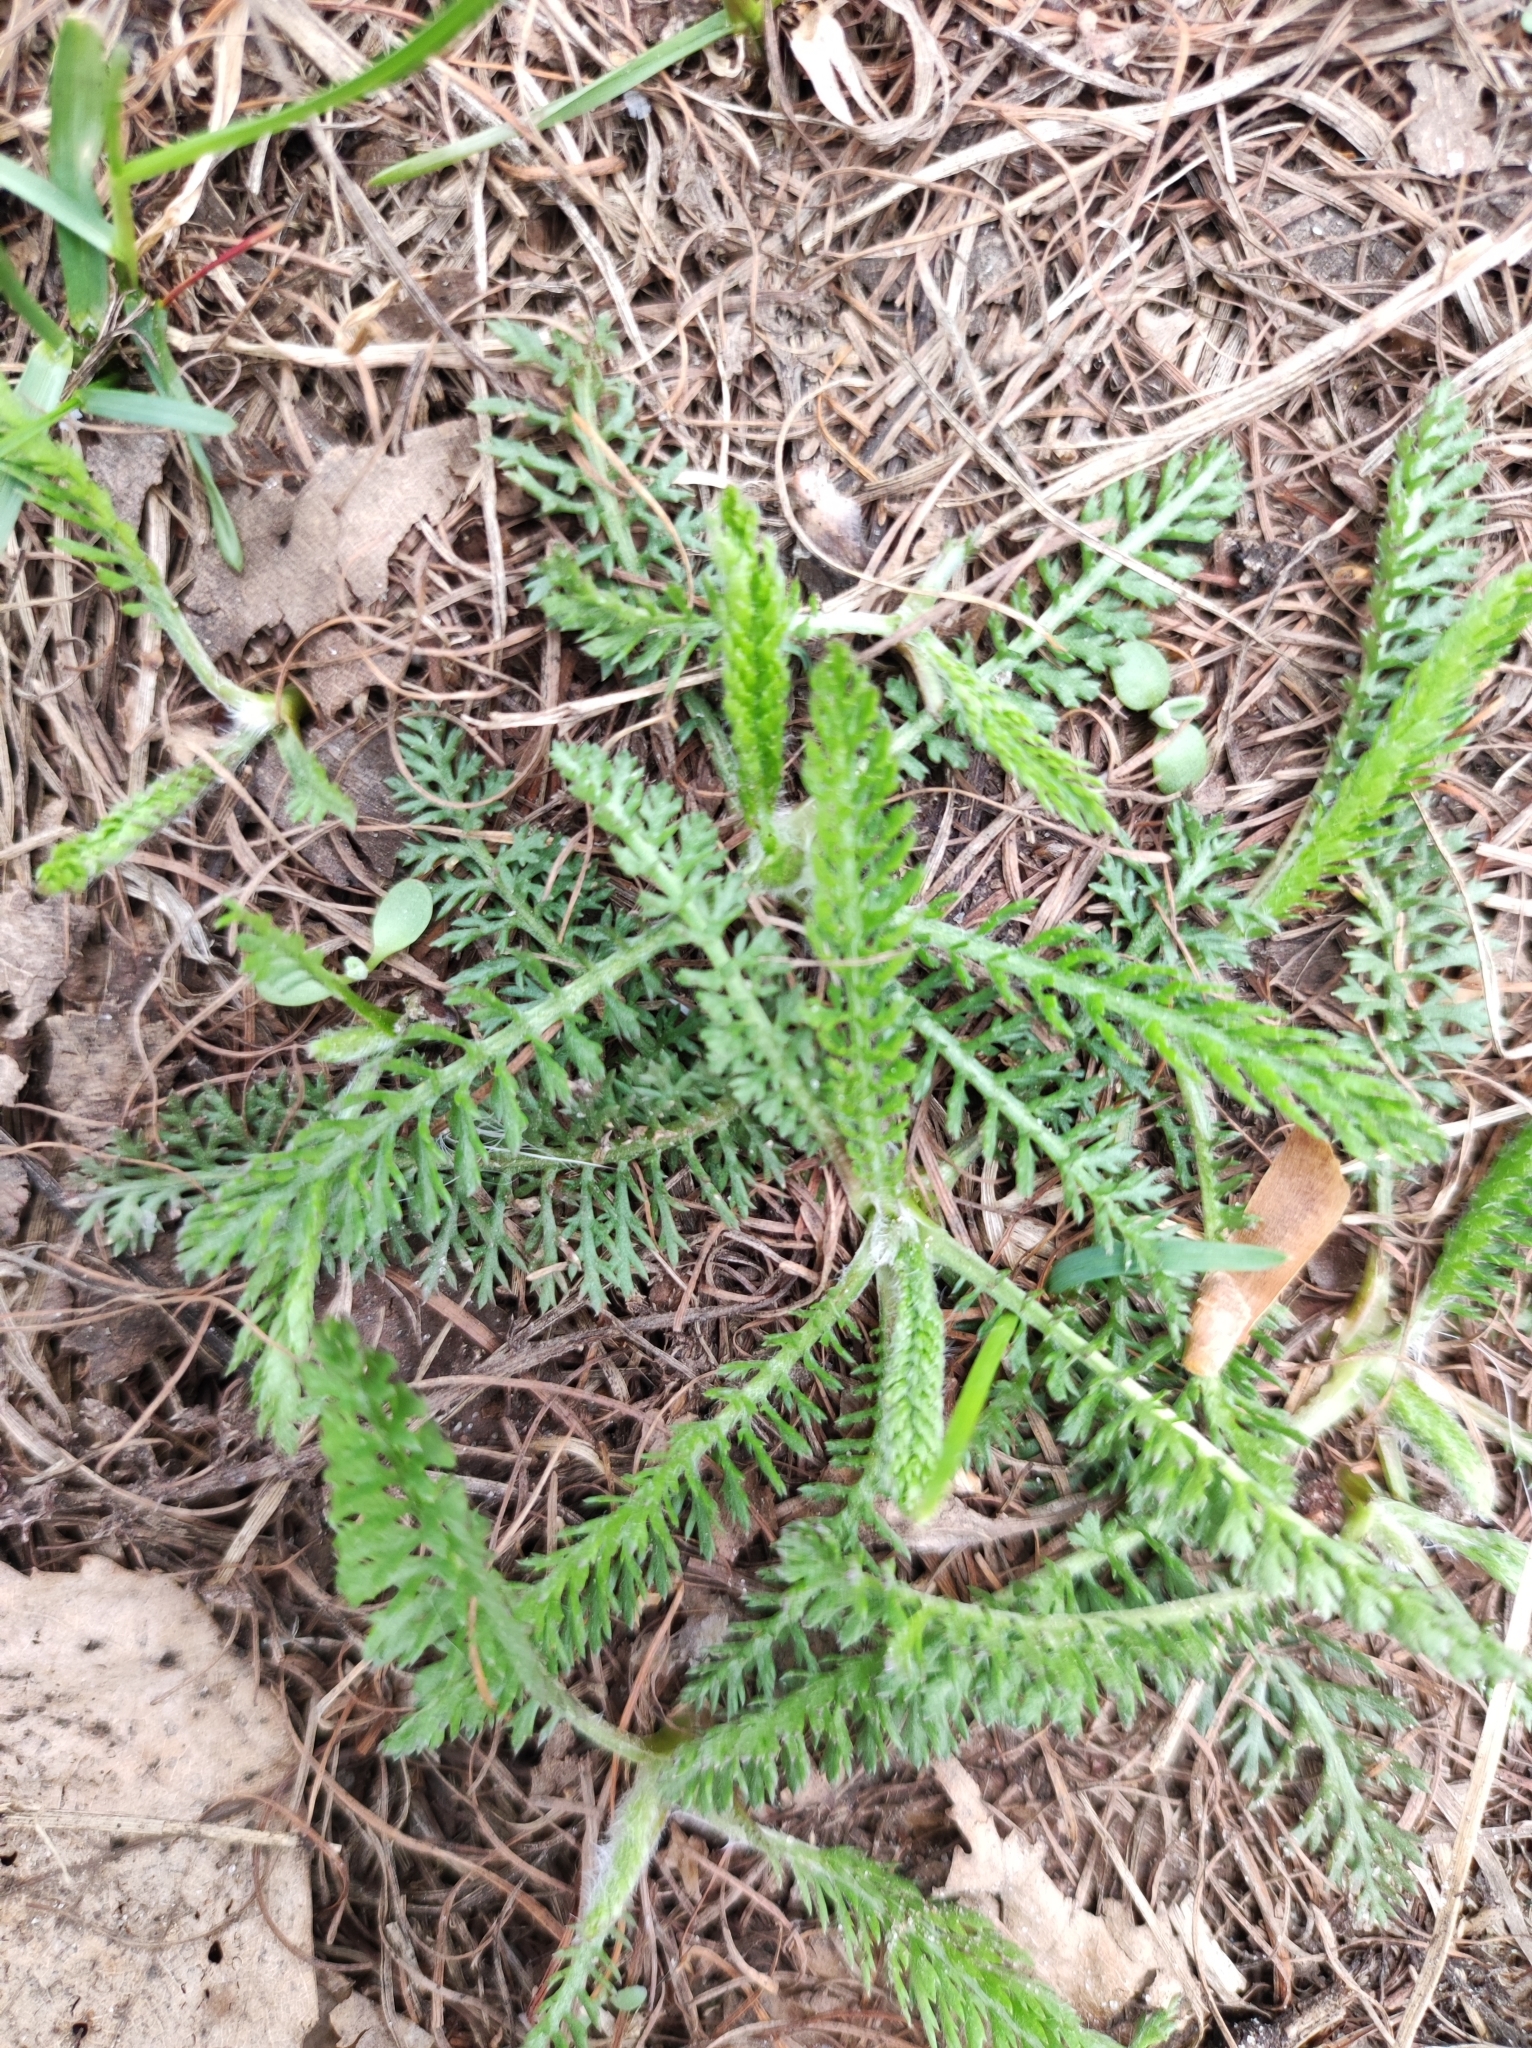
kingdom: Plantae
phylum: Tracheophyta
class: Magnoliopsida
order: Asterales
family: Asteraceae
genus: Achillea
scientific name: Achillea millefolium
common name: Yarrow
